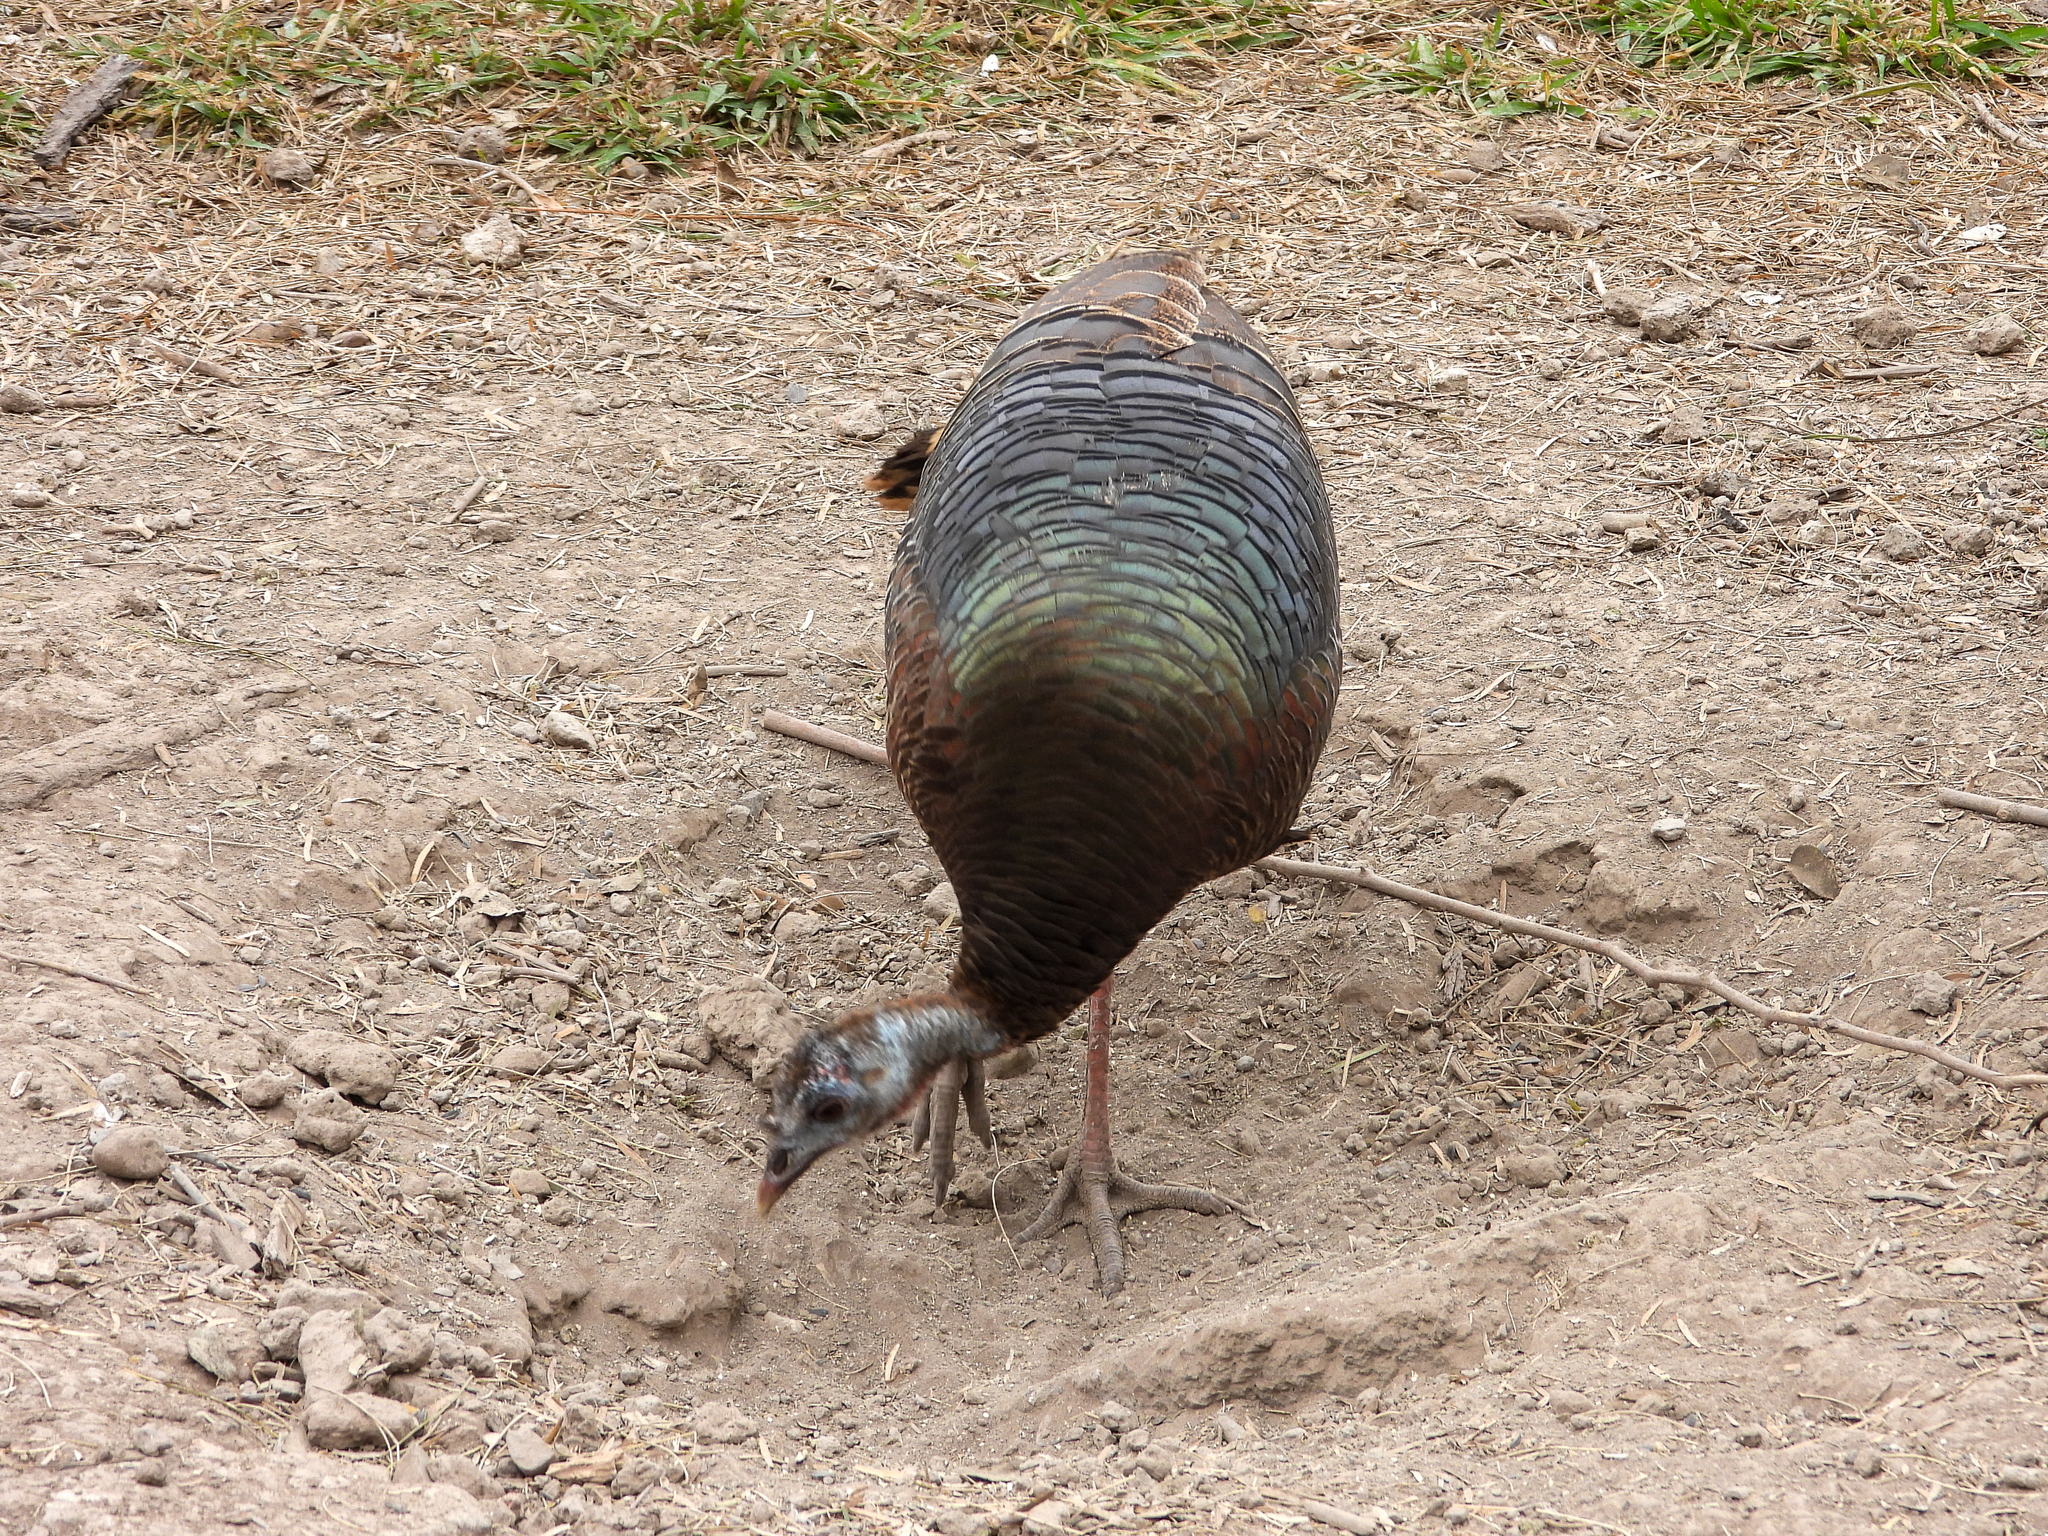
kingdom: Animalia
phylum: Chordata
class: Aves
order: Galliformes
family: Phasianidae
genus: Meleagris
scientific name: Meleagris gallopavo
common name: Wild turkey
